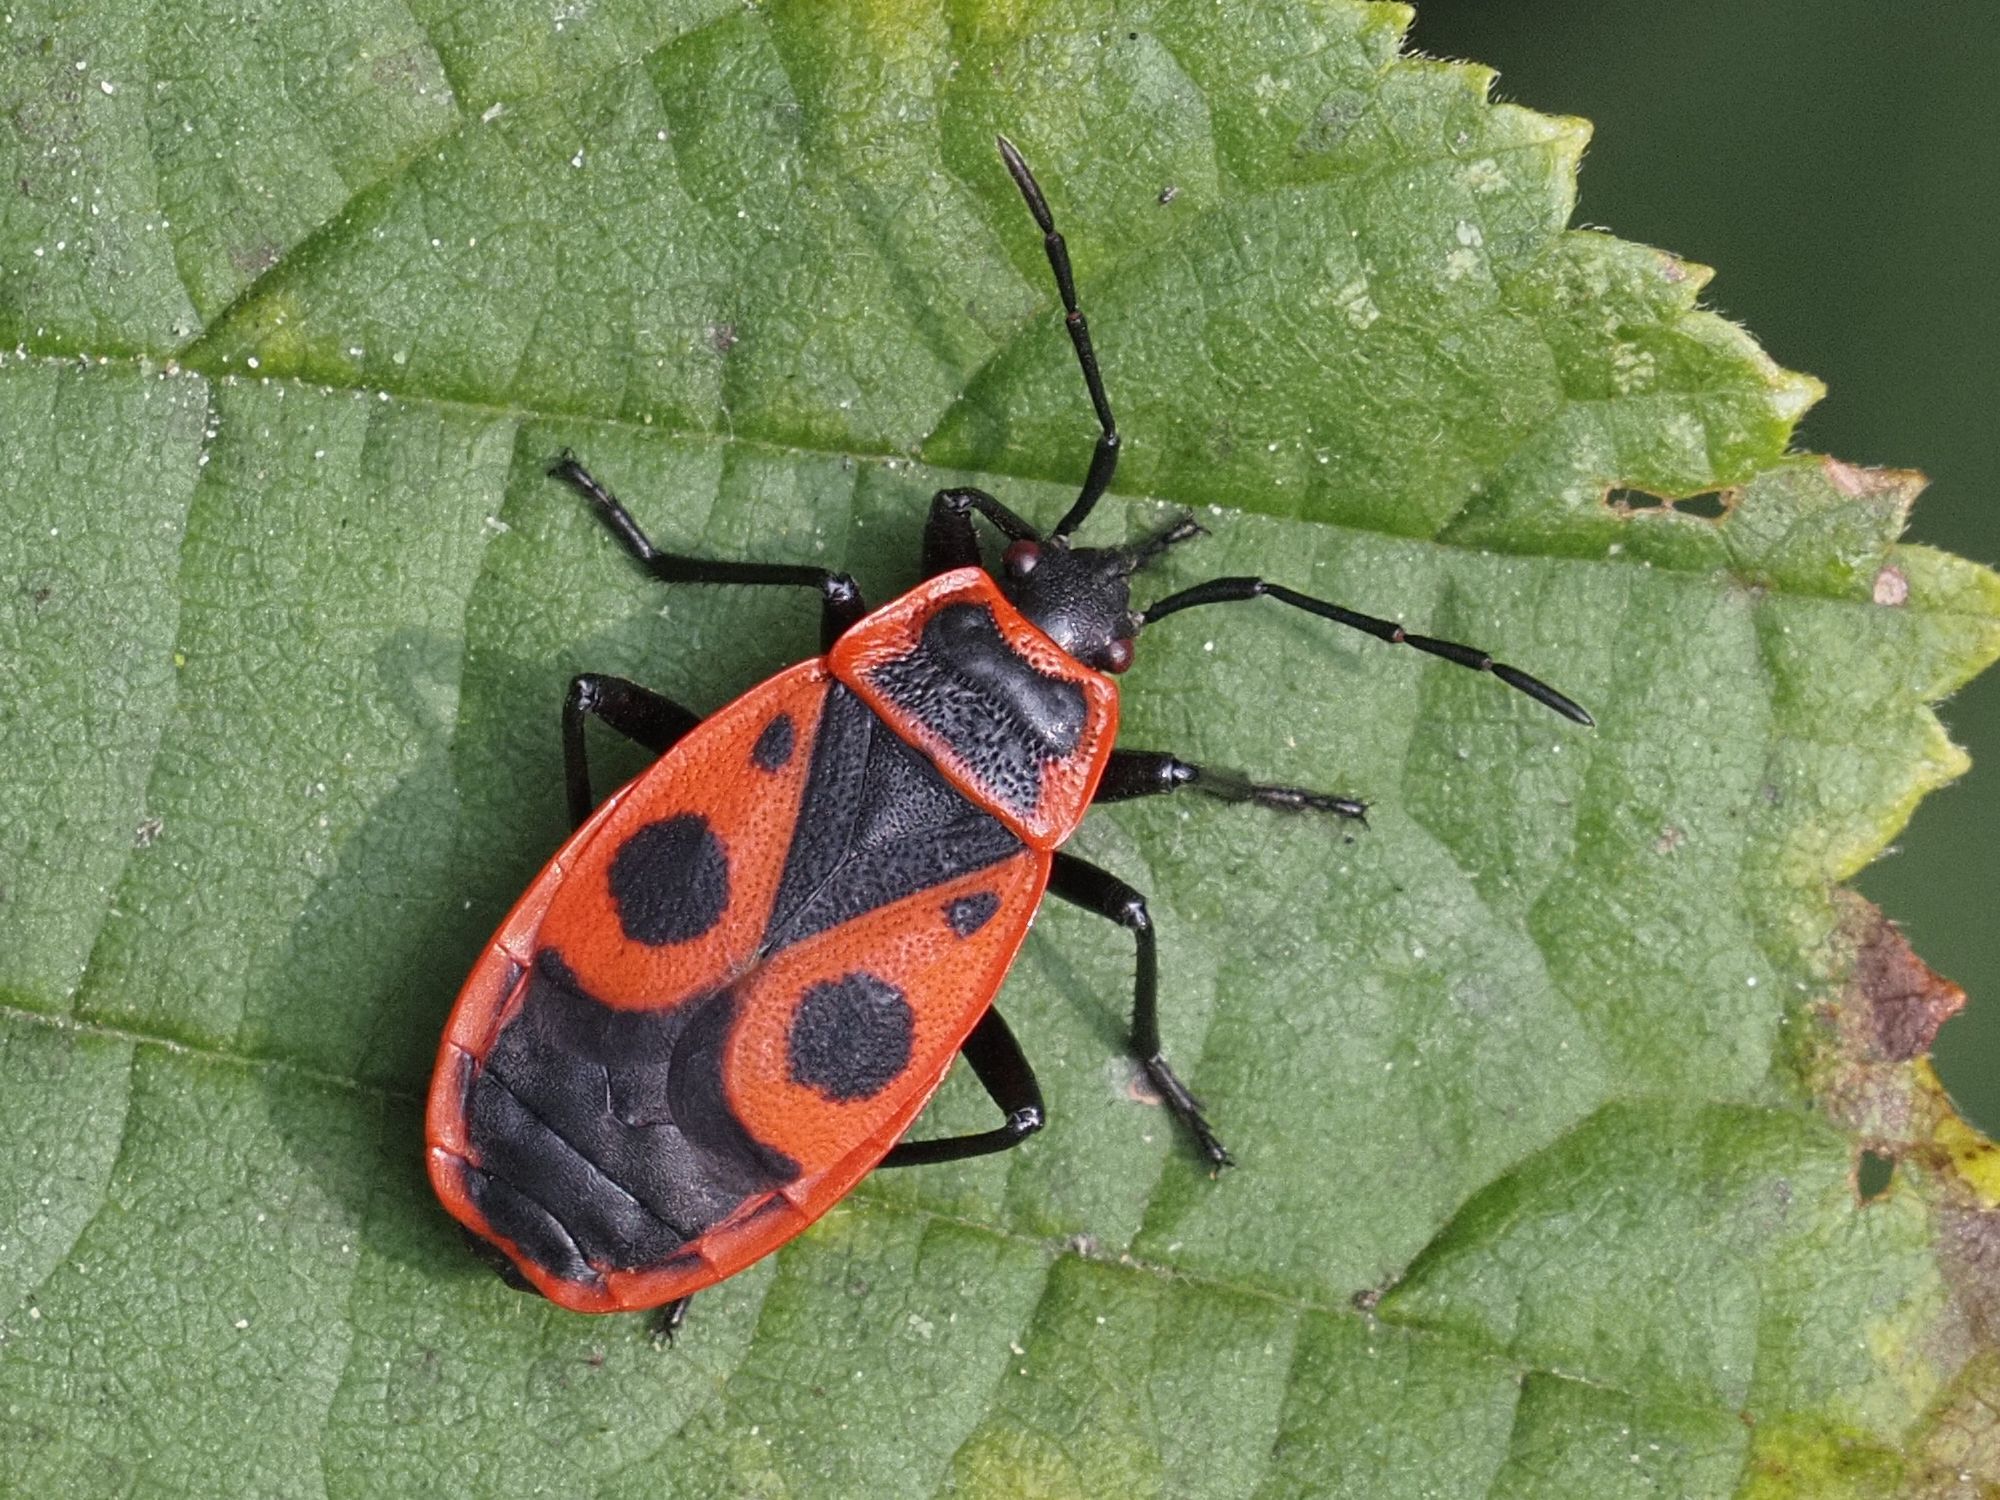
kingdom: Animalia
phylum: Arthropoda
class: Insecta
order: Hemiptera
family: Pyrrhocoridae
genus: Pyrrhocoris
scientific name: Pyrrhocoris apterus
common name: Firebug
